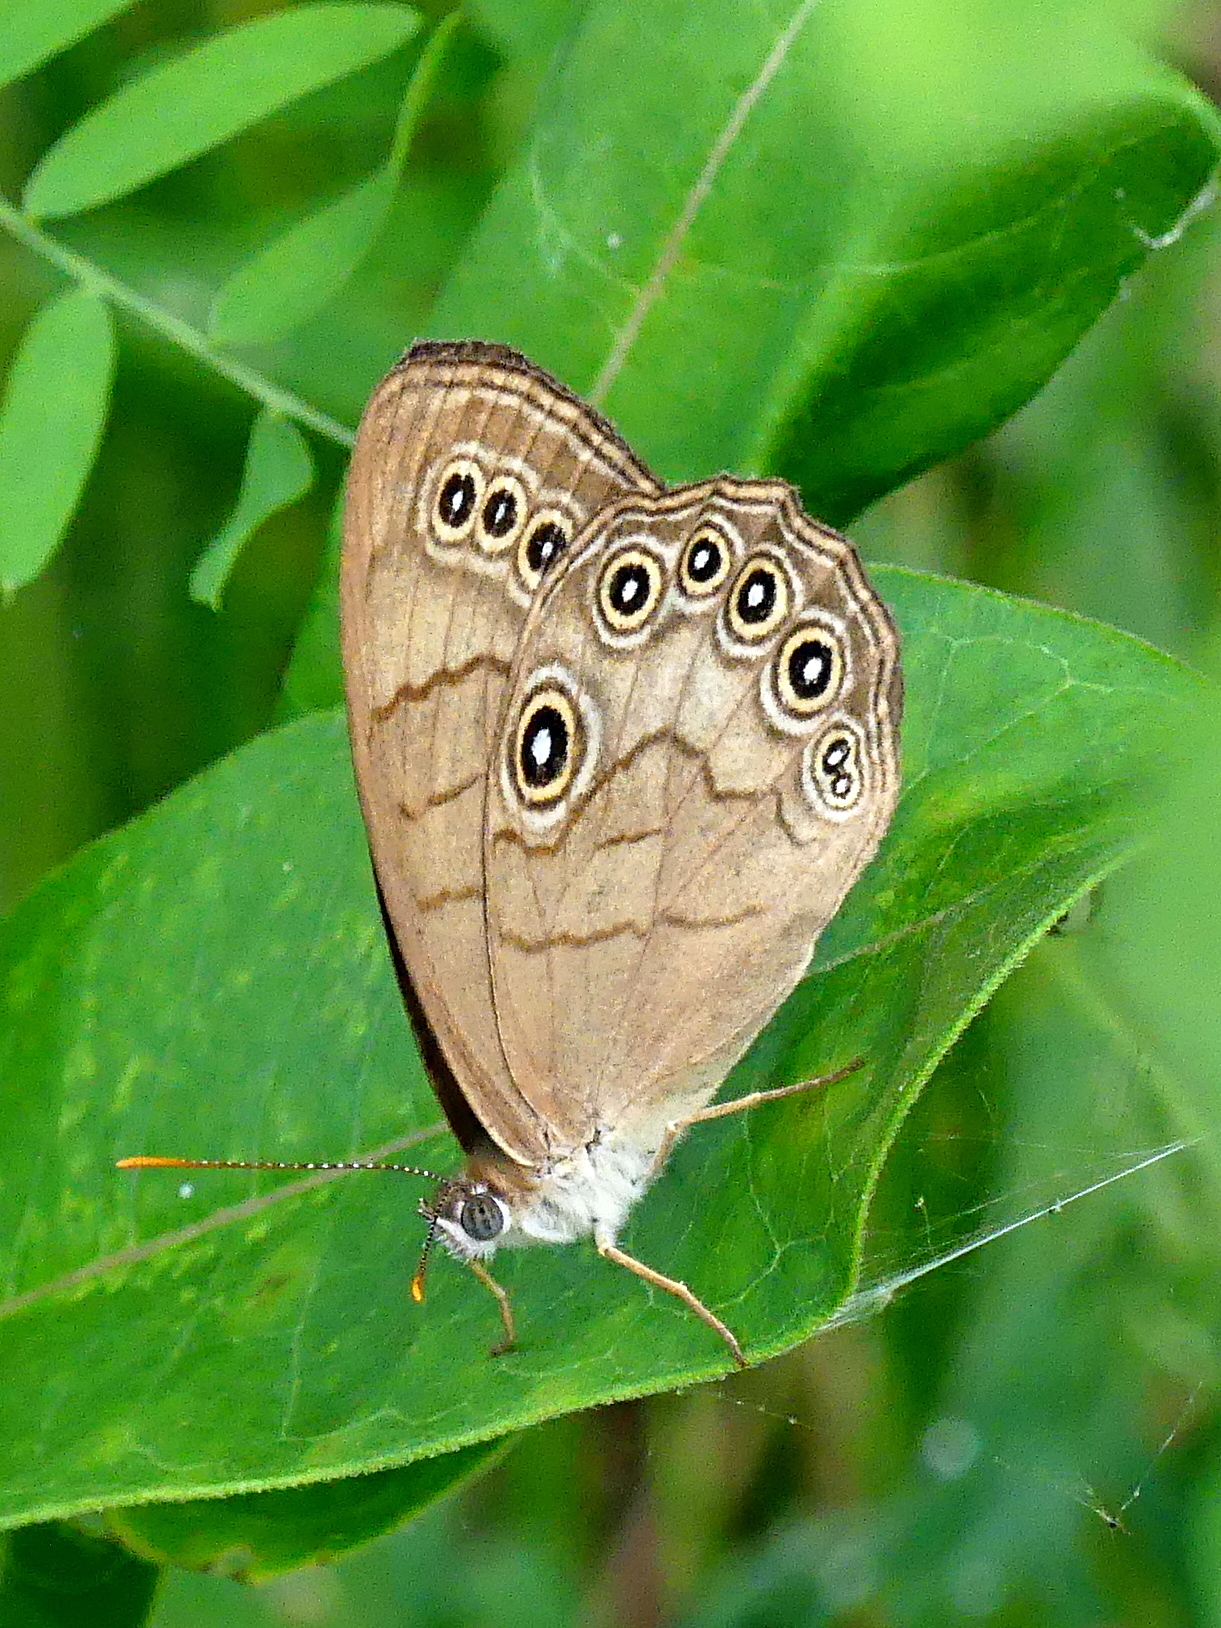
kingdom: Animalia
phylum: Arthropoda
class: Insecta
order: Lepidoptera
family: Nymphalidae
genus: Lethe
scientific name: Lethe eurydice
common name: Eyed brown
